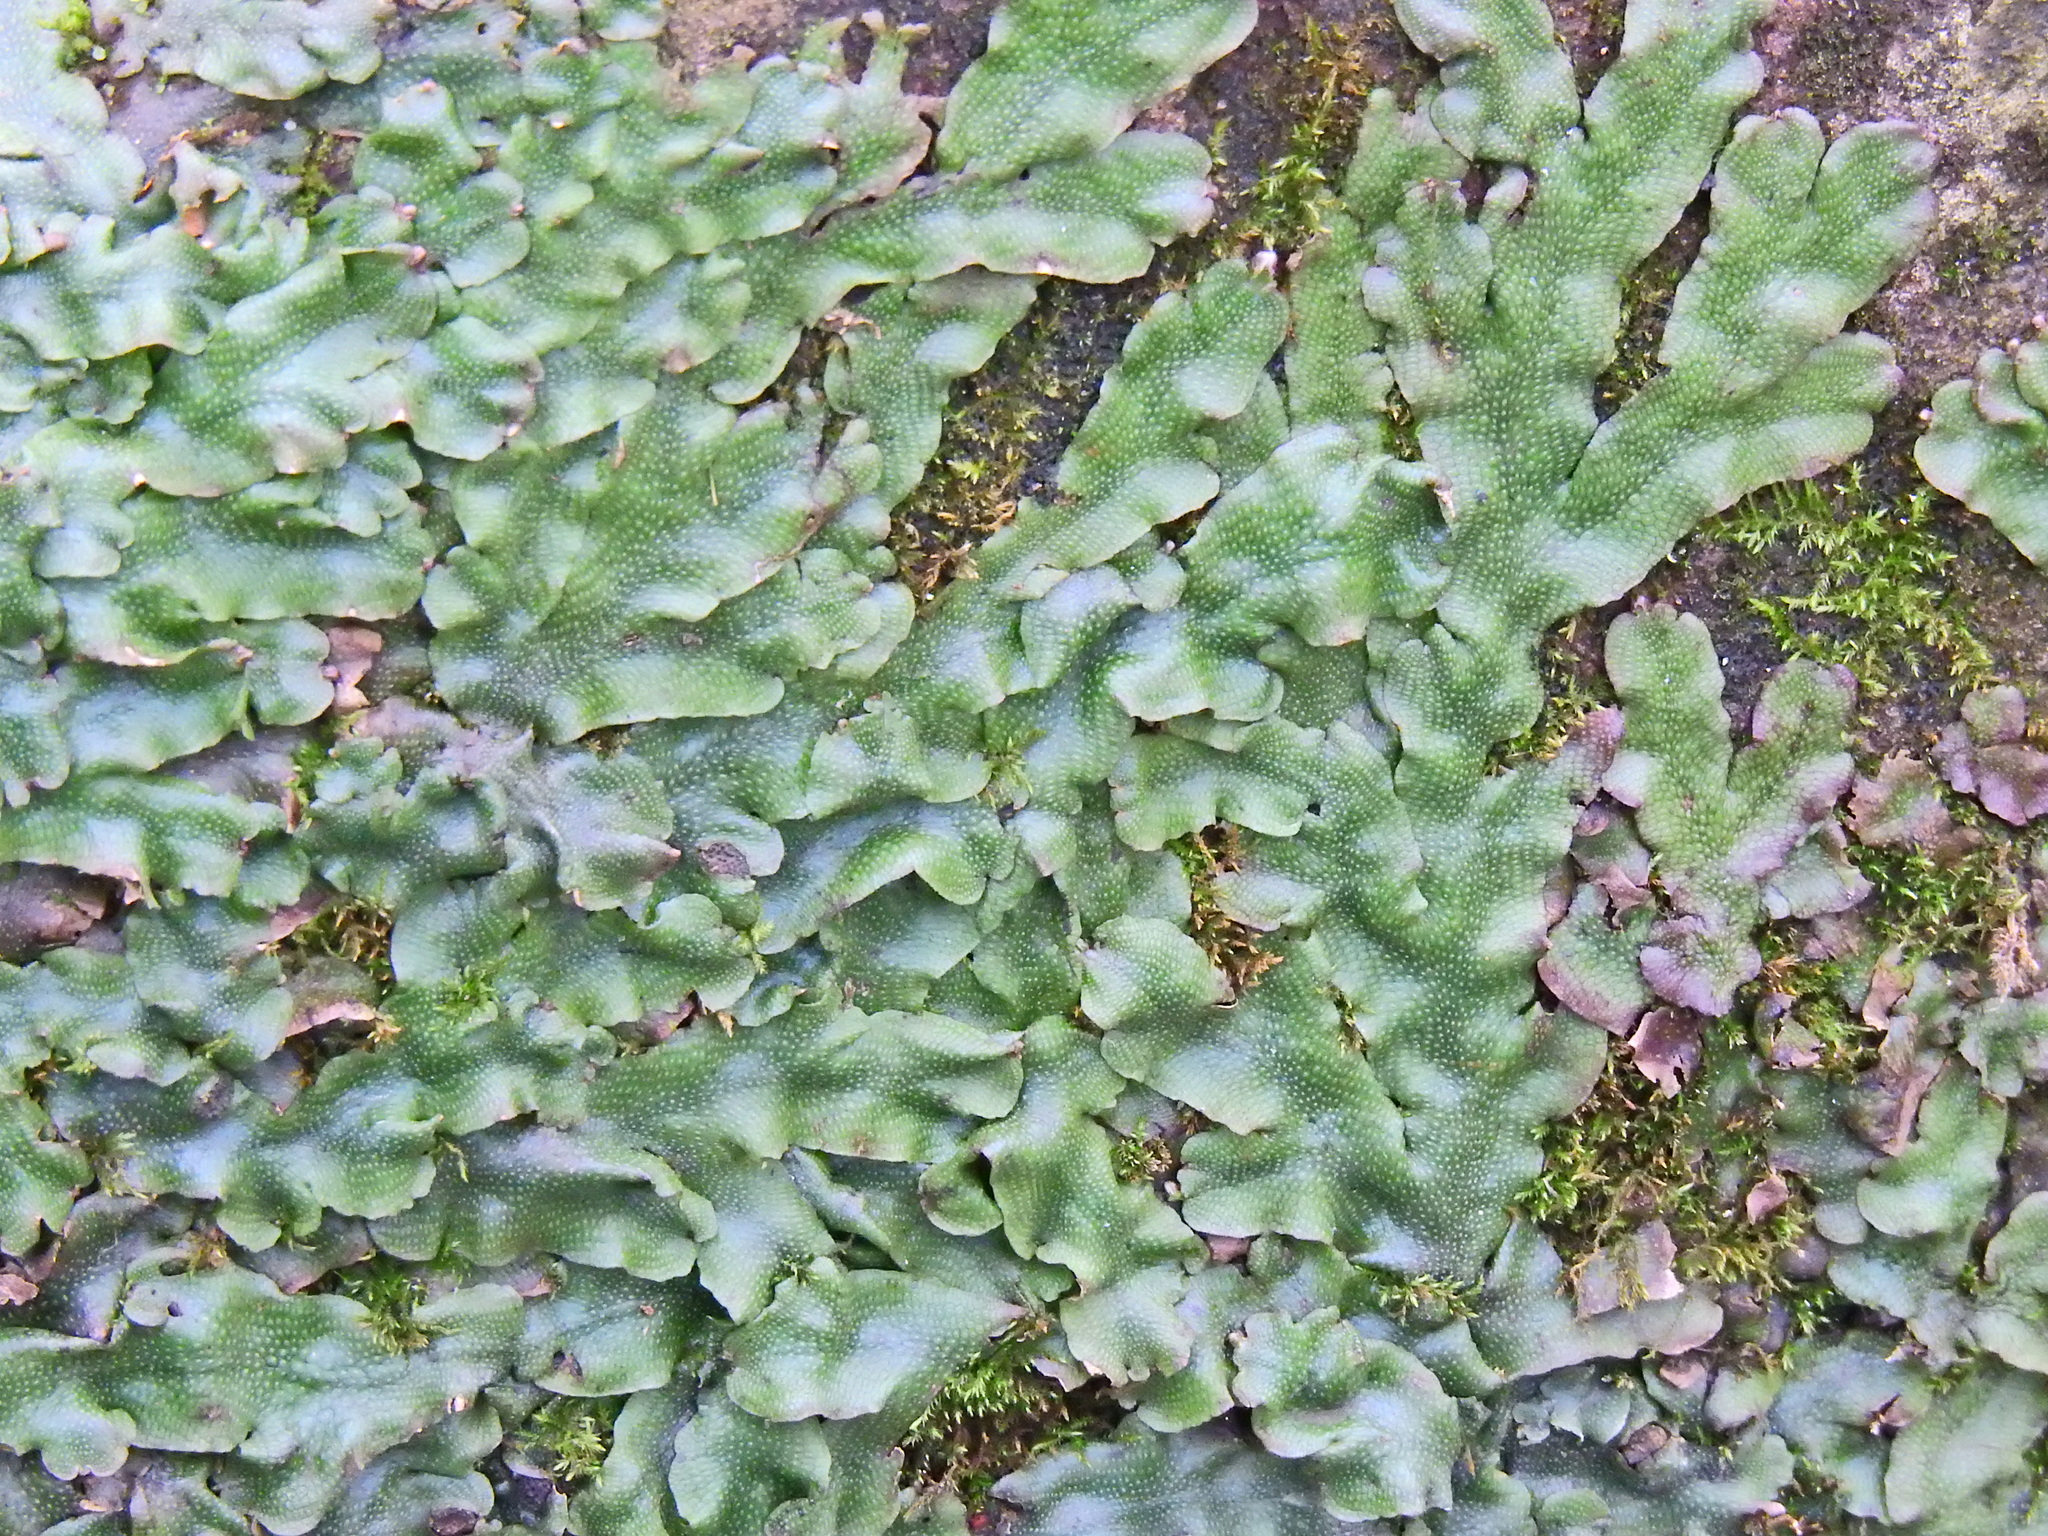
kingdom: Plantae
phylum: Marchantiophyta
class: Marchantiopsida
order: Marchantiales
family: Conocephalaceae
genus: Conocephalum
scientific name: Conocephalum conicum
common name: Great scented liverwort
